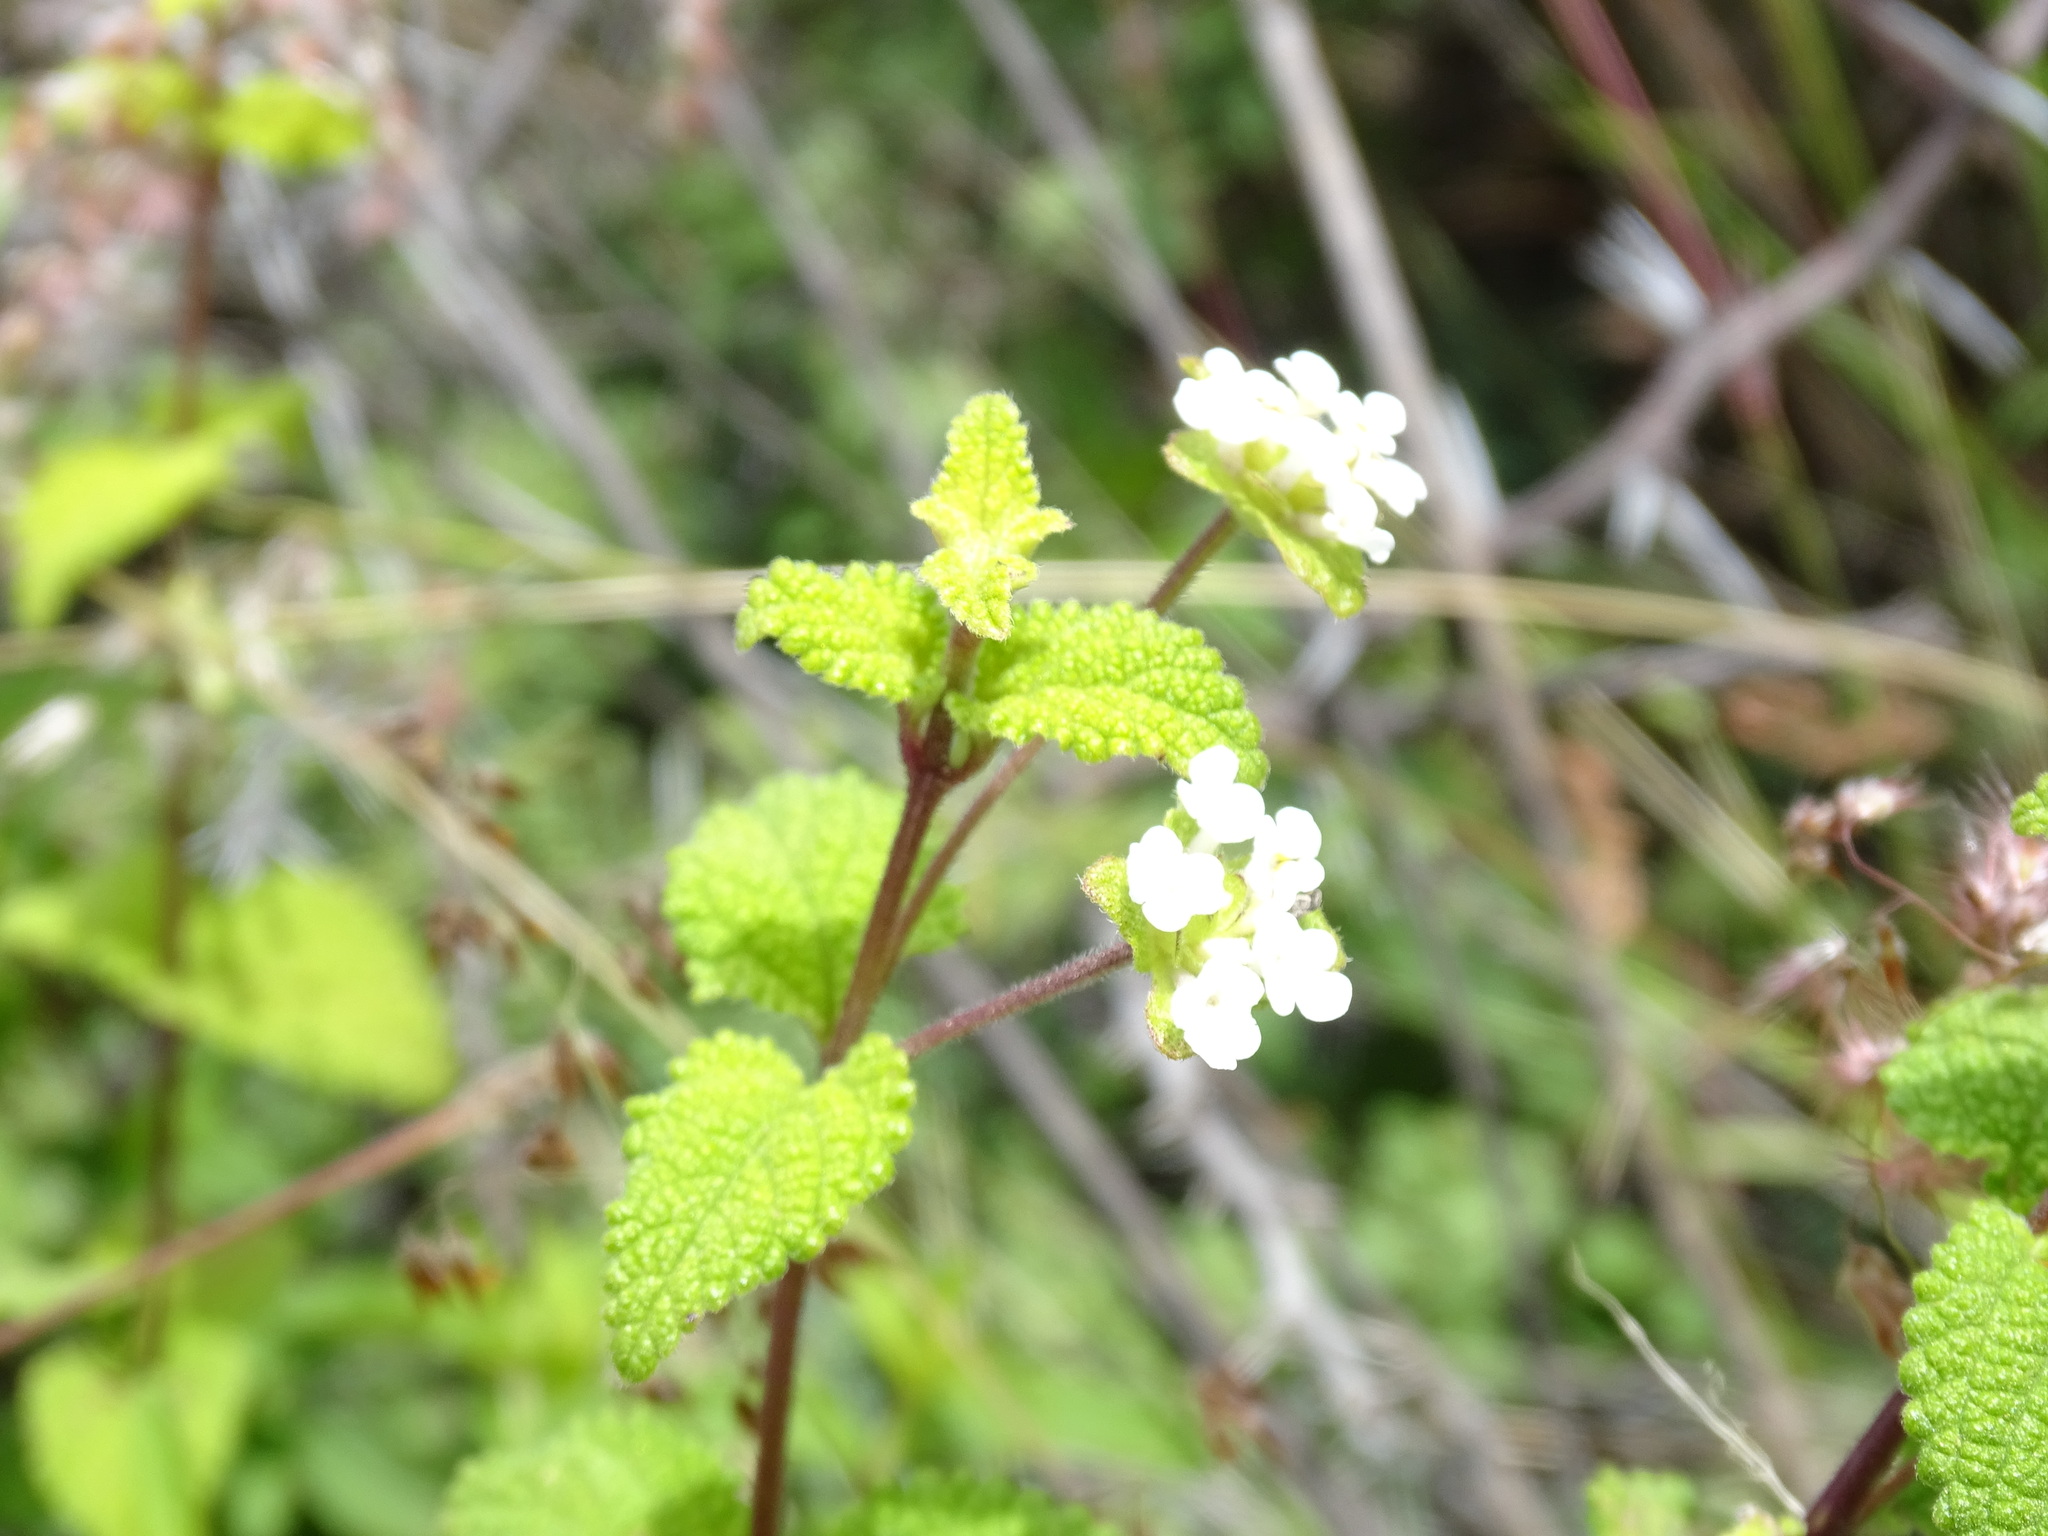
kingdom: Plantae
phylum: Tracheophyta
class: Magnoliopsida
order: Lamiales
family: Verbenaceae
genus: Lantana
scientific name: Lantana velutina
